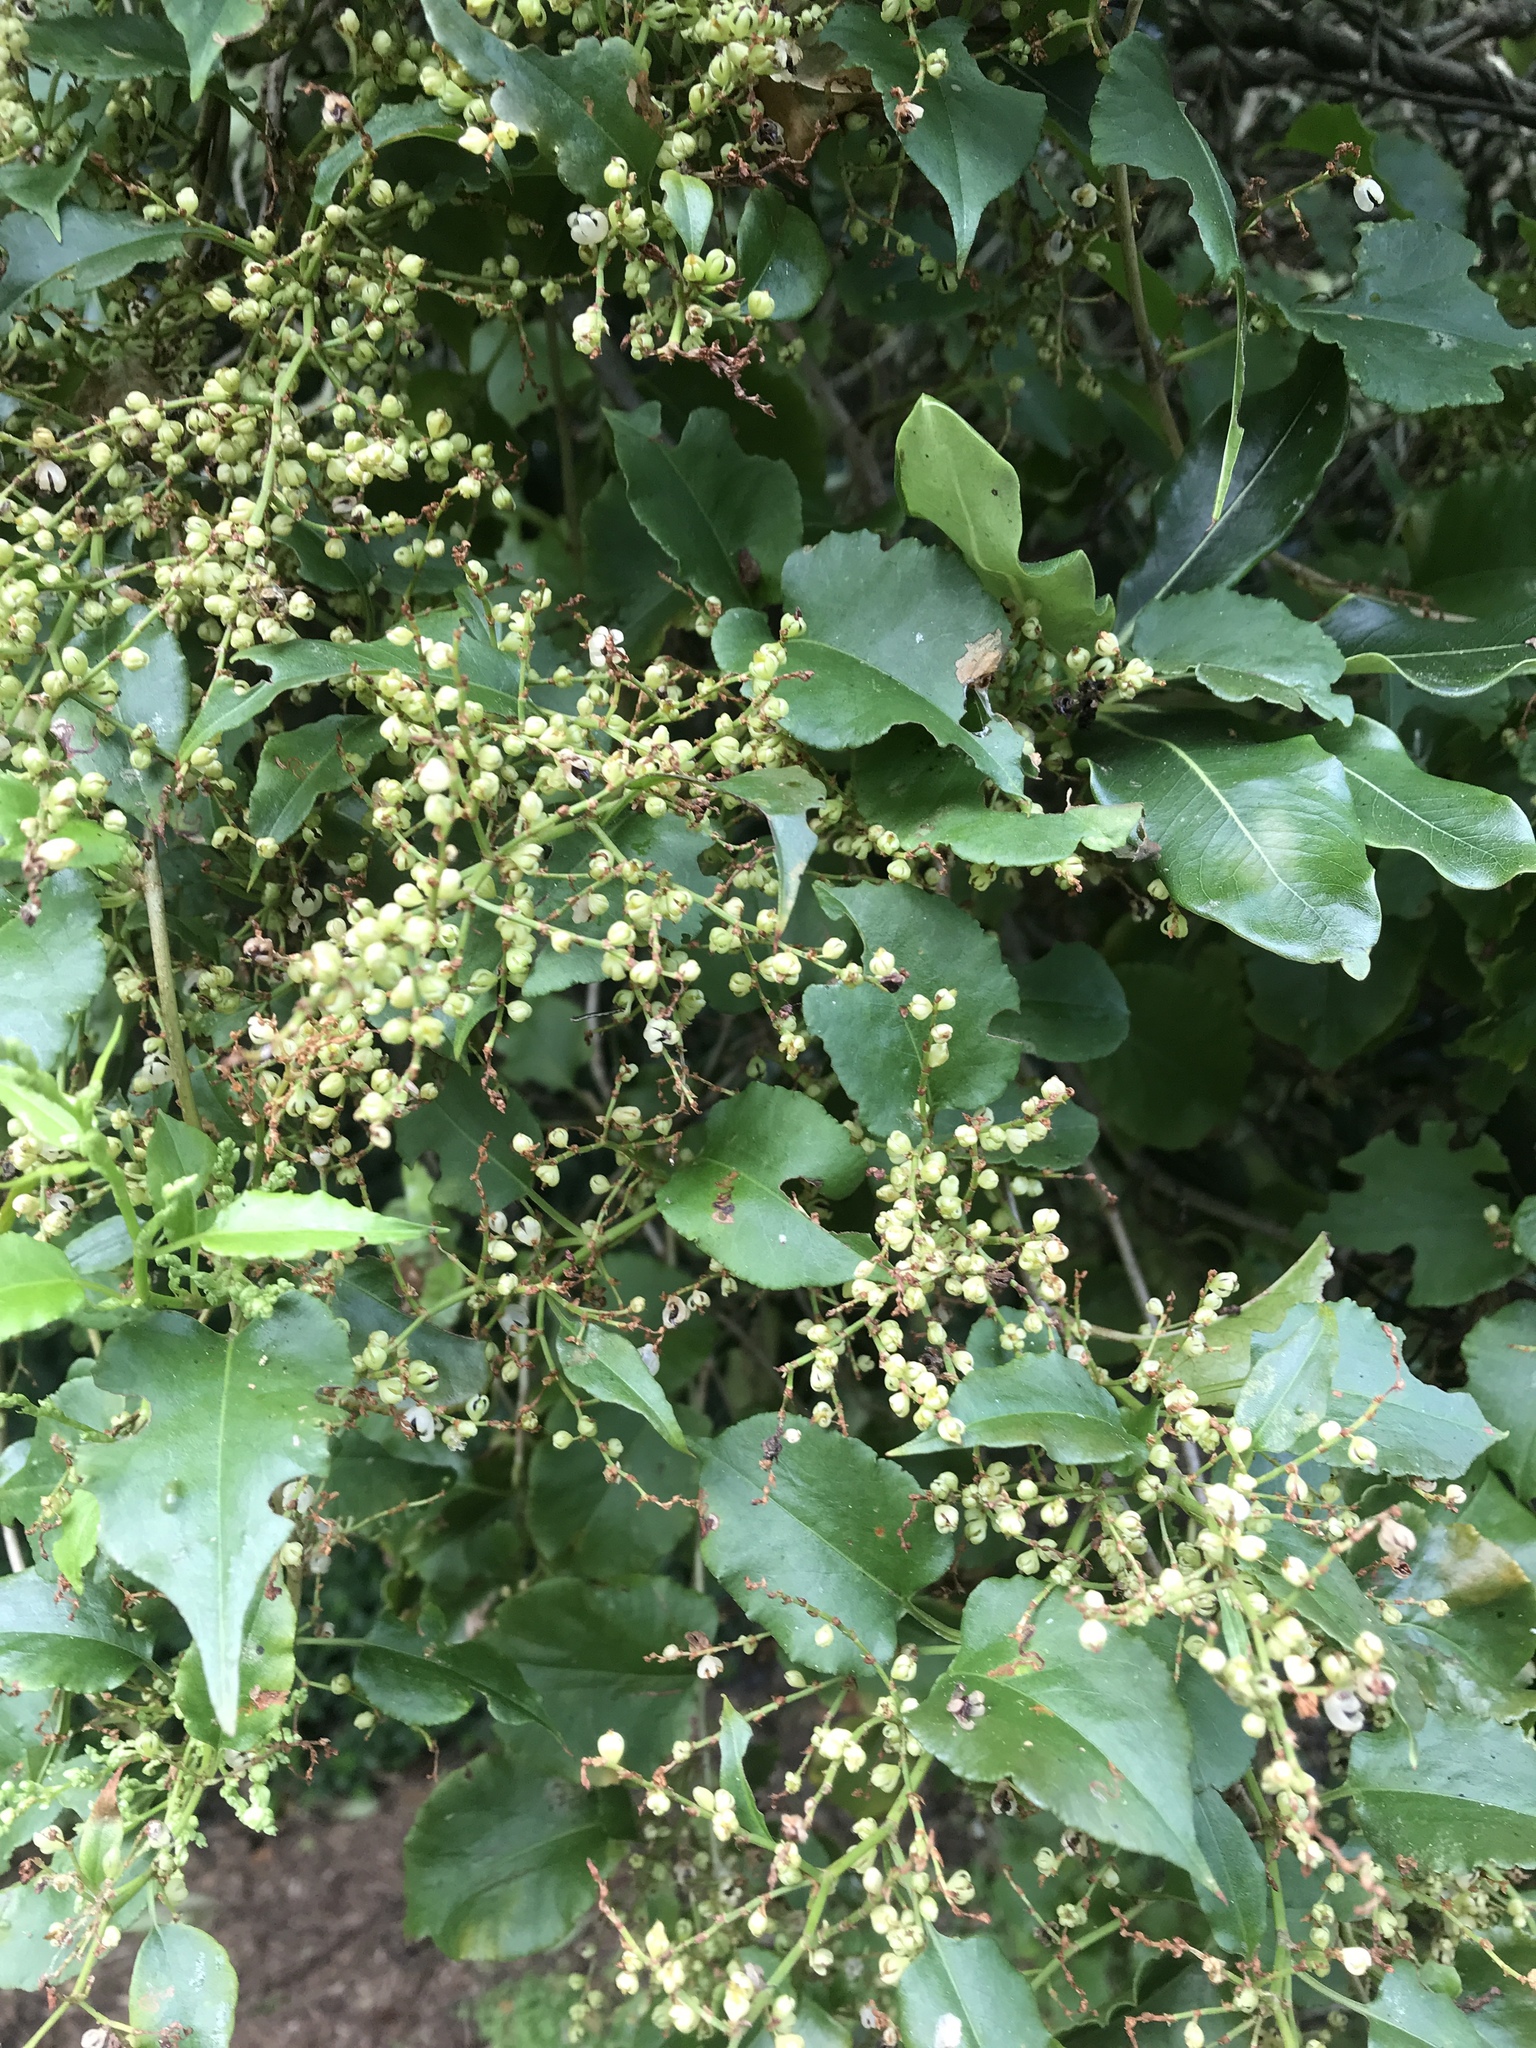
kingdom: Plantae
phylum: Tracheophyta
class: Magnoliopsida
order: Caryophyllales
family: Polygonaceae
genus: Muehlenbeckia
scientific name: Muehlenbeckia australis
